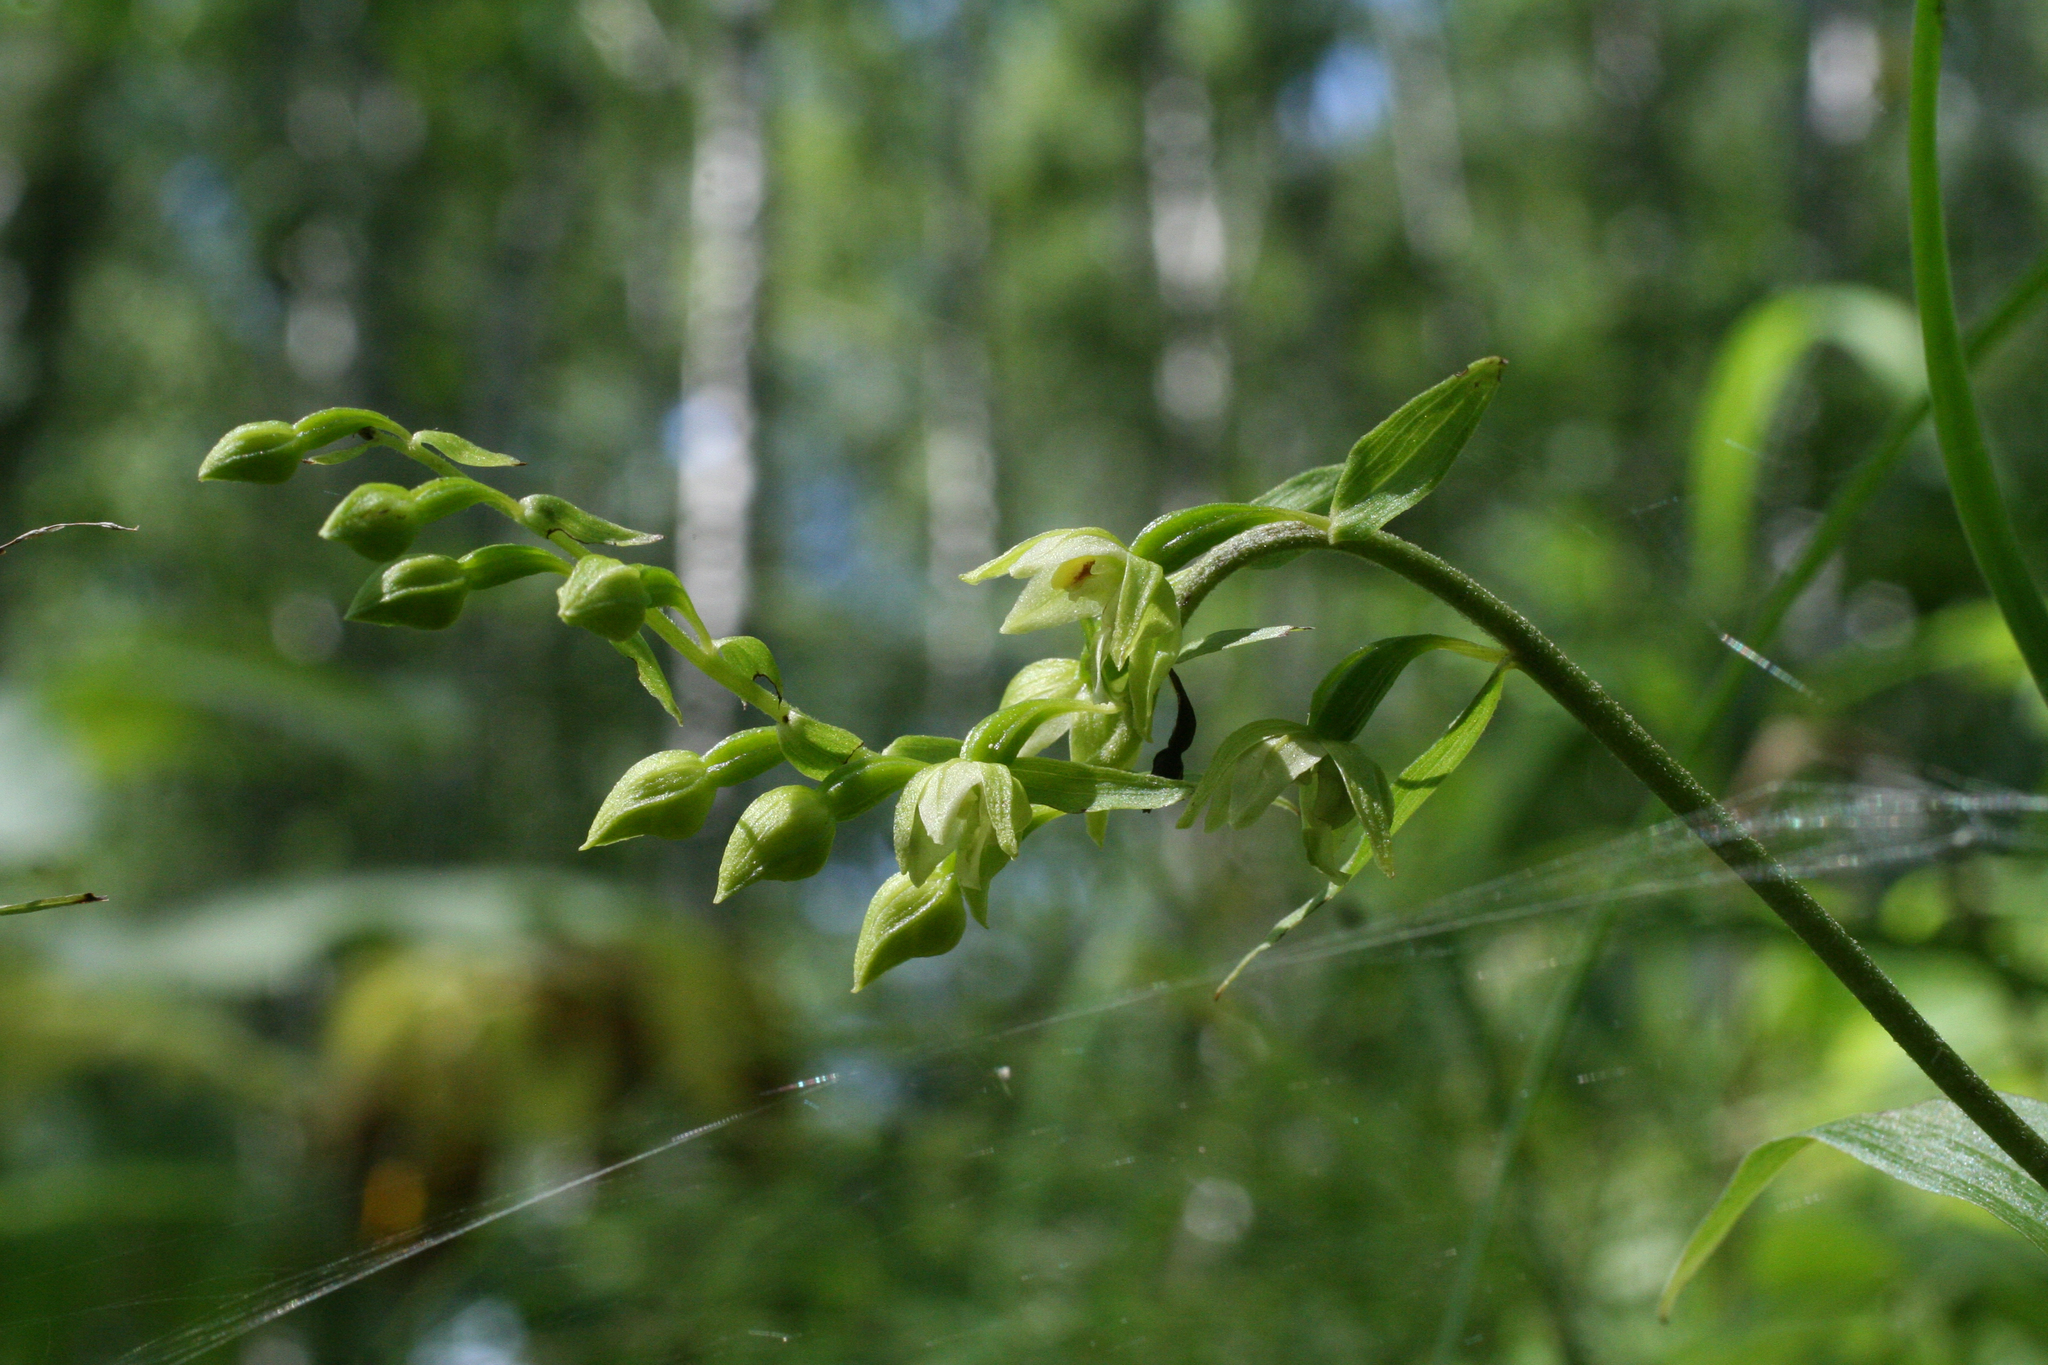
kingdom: Plantae
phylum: Tracheophyta
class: Liliopsida
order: Asparagales
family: Orchidaceae
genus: Epipactis
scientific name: Epipactis helleborine
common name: Broad-leaved helleborine
